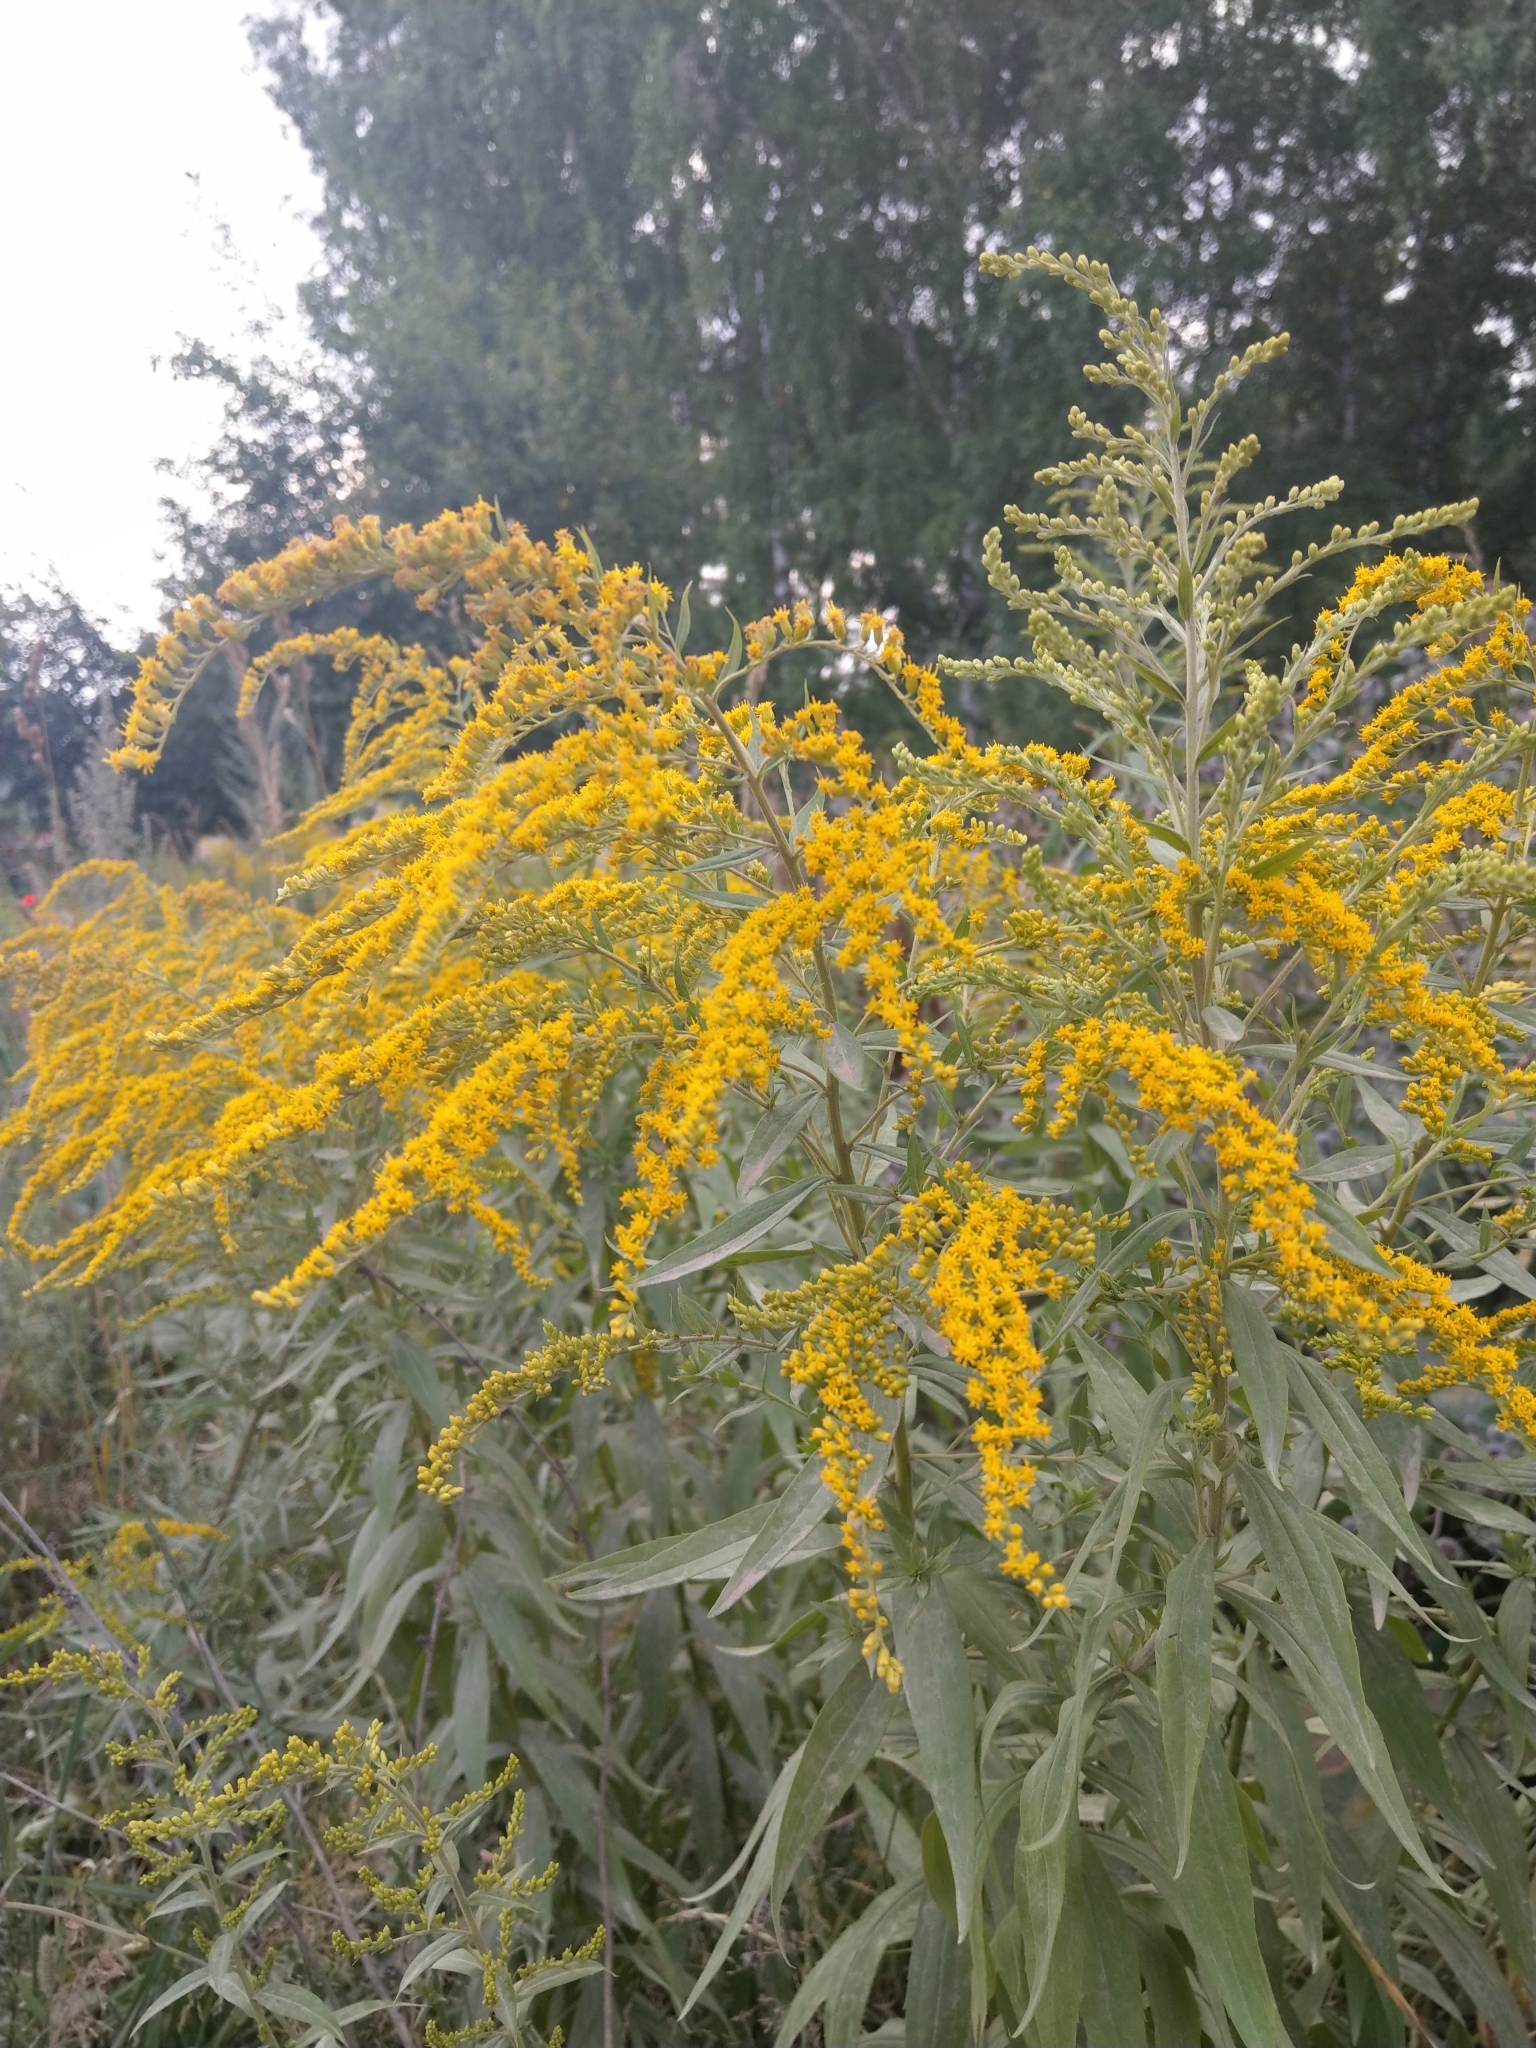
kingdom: Plantae
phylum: Tracheophyta
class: Magnoliopsida
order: Asterales
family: Asteraceae
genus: Solidago
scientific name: Solidago canadensis
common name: Canada goldenrod
